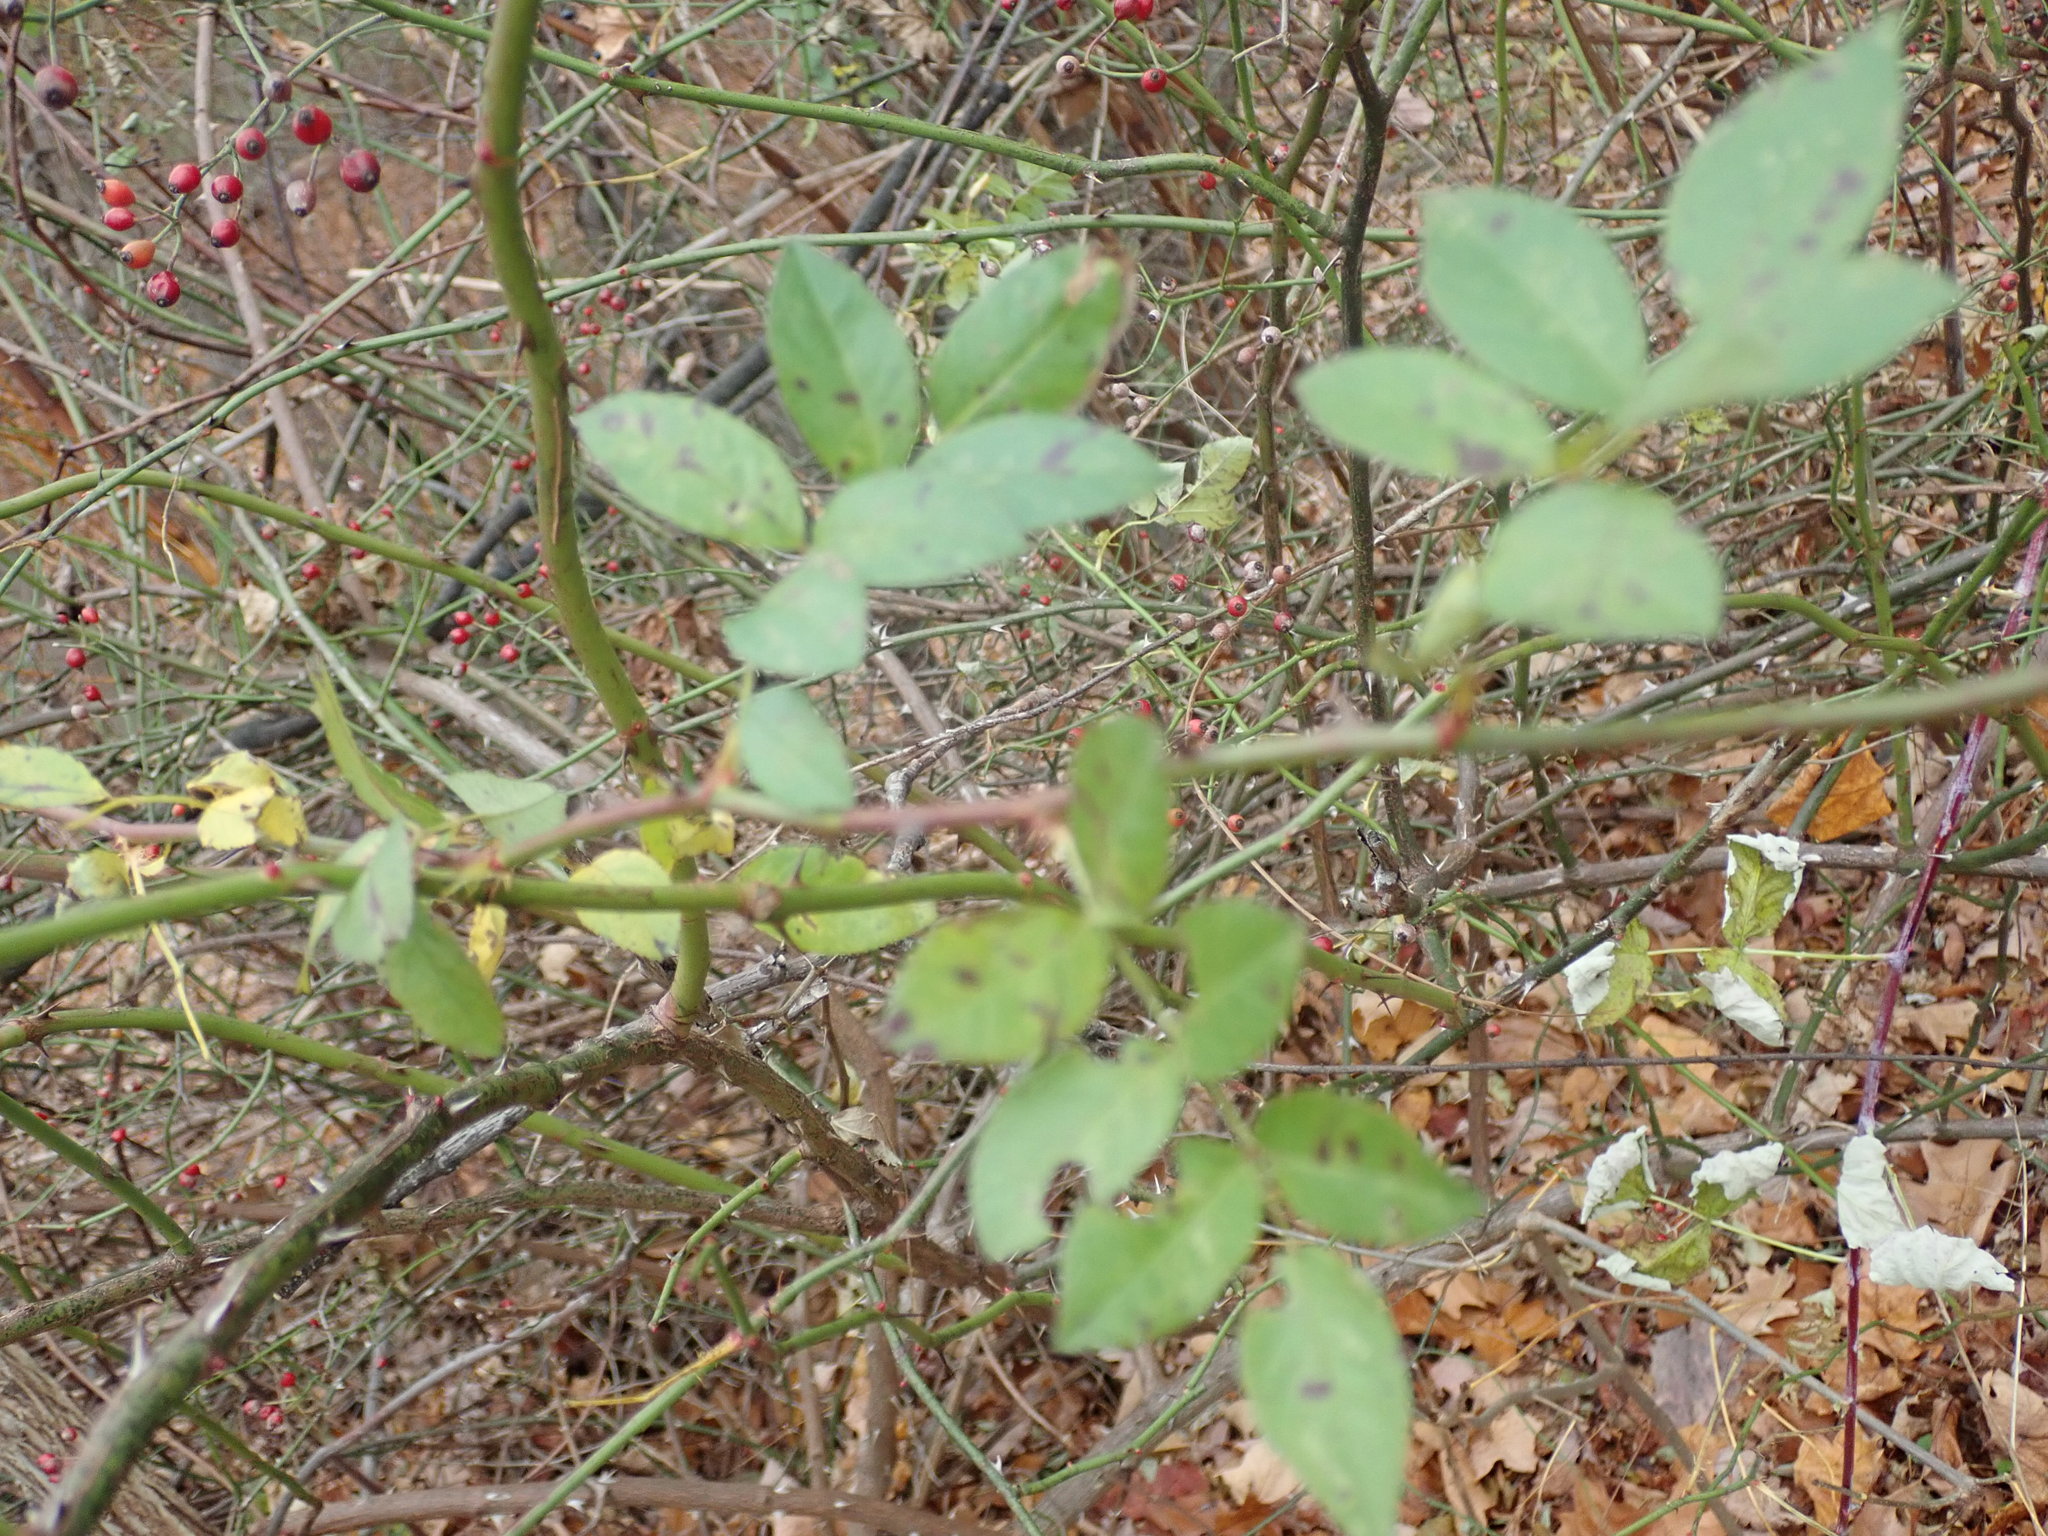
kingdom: Plantae
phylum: Tracheophyta
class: Magnoliopsida
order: Rosales
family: Rosaceae
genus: Rosa
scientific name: Rosa multiflora
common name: Multiflora rose
